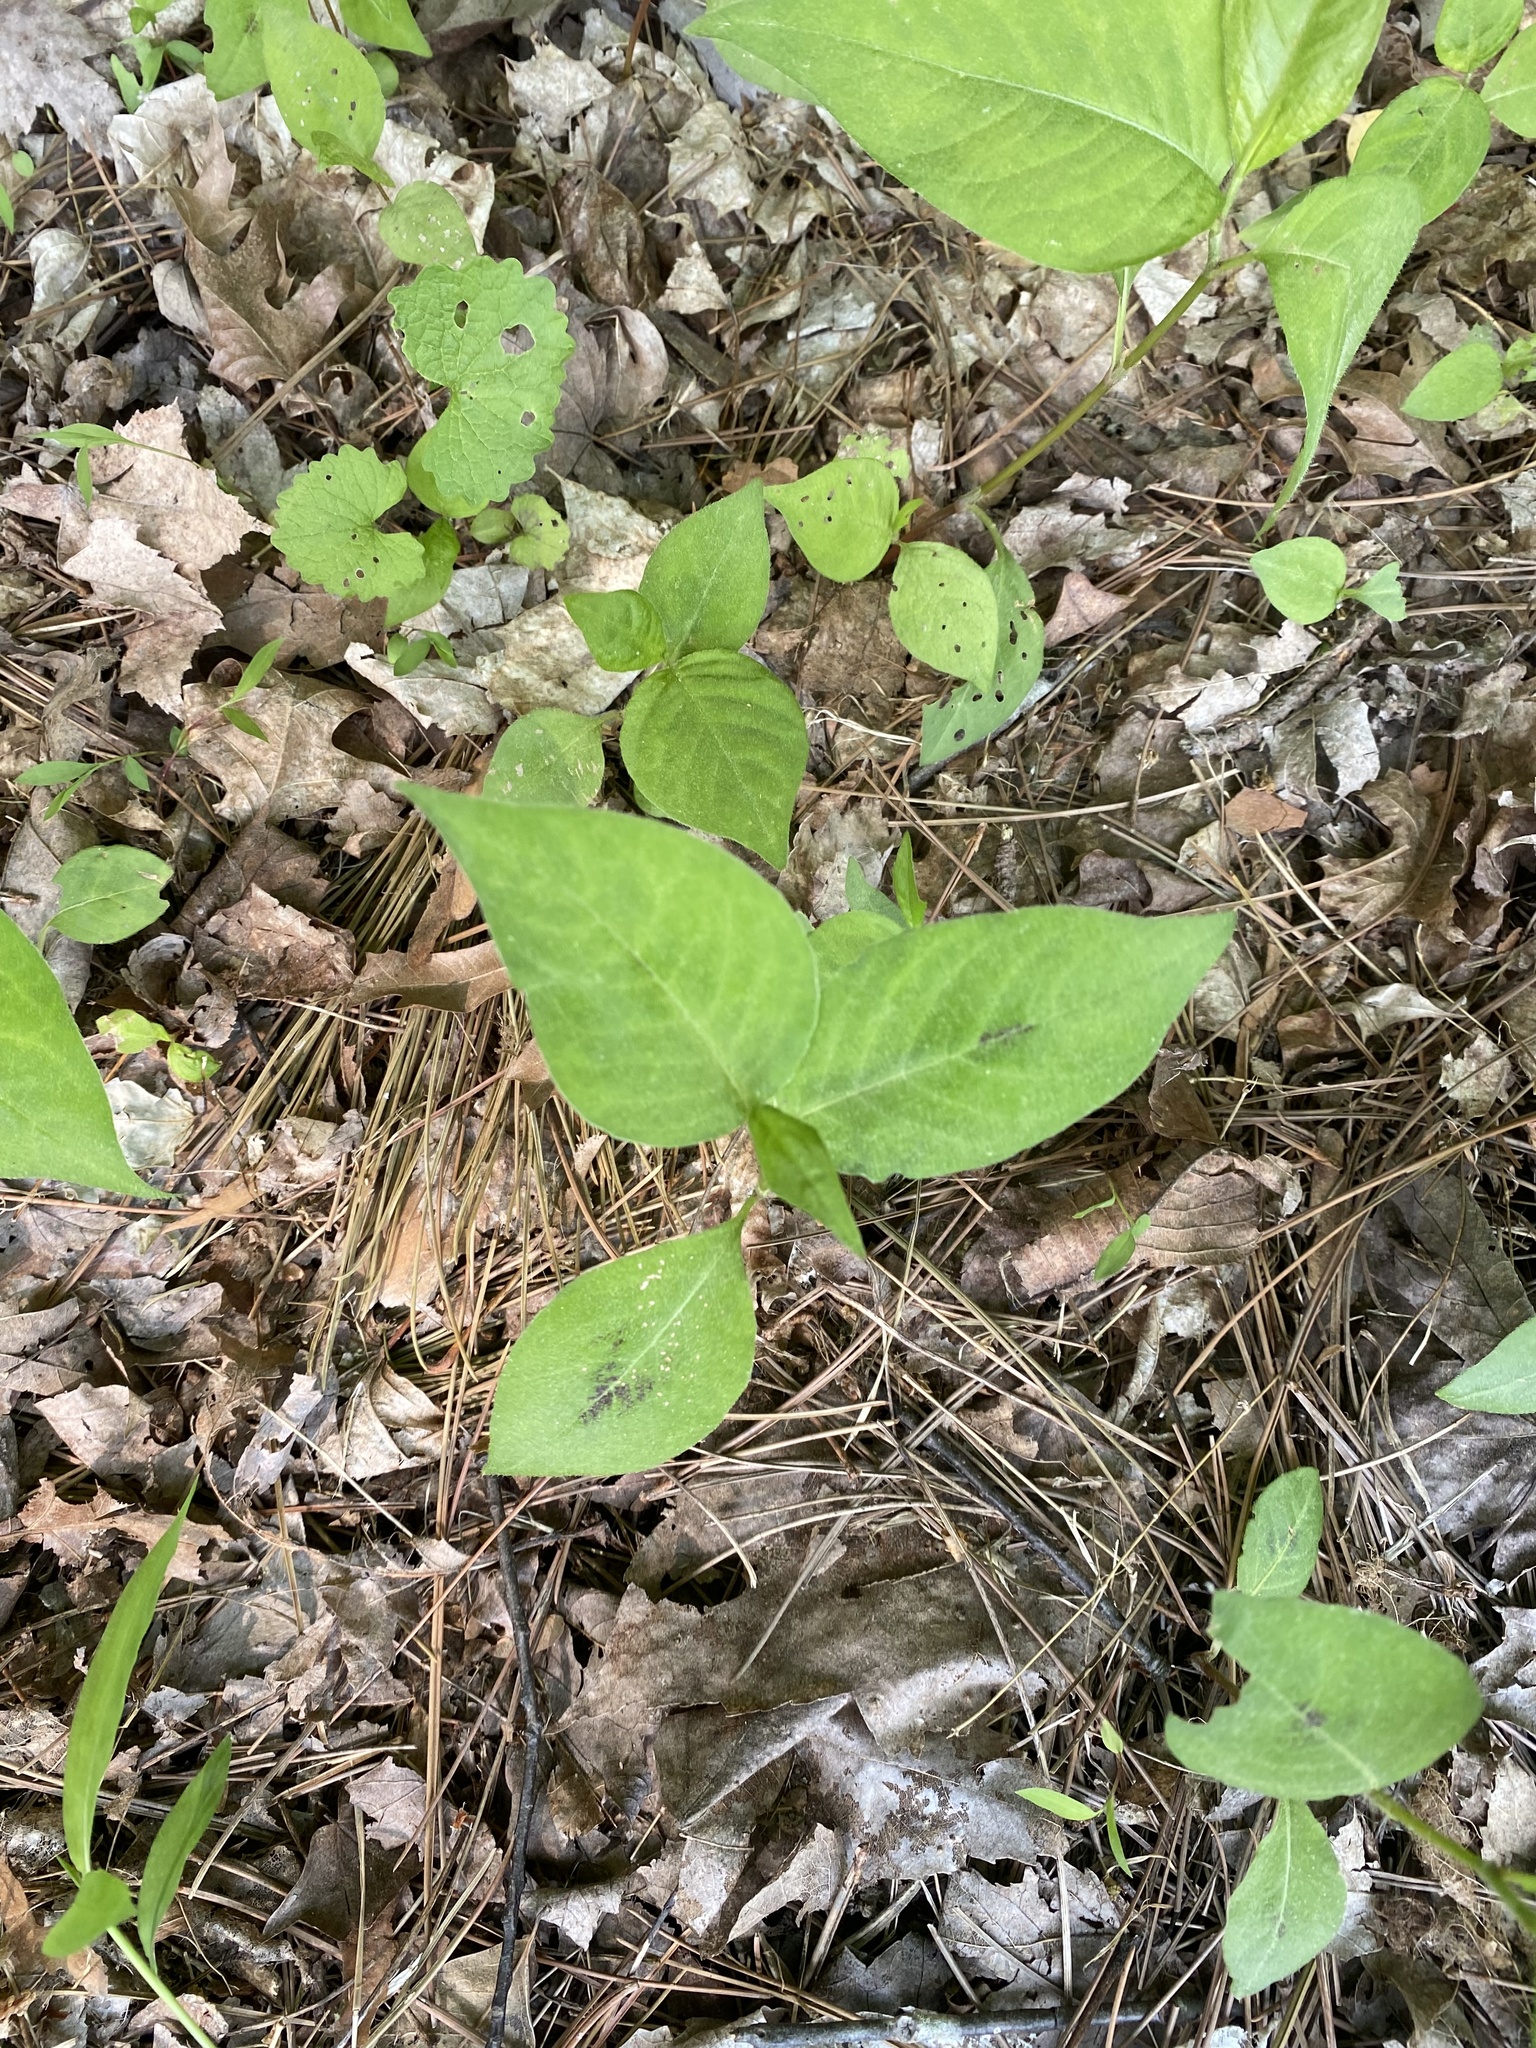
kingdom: Plantae
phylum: Tracheophyta
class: Magnoliopsida
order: Caryophyllales
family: Polygonaceae
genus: Persicaria
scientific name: Persicaria virginiana
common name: Jumpseed
